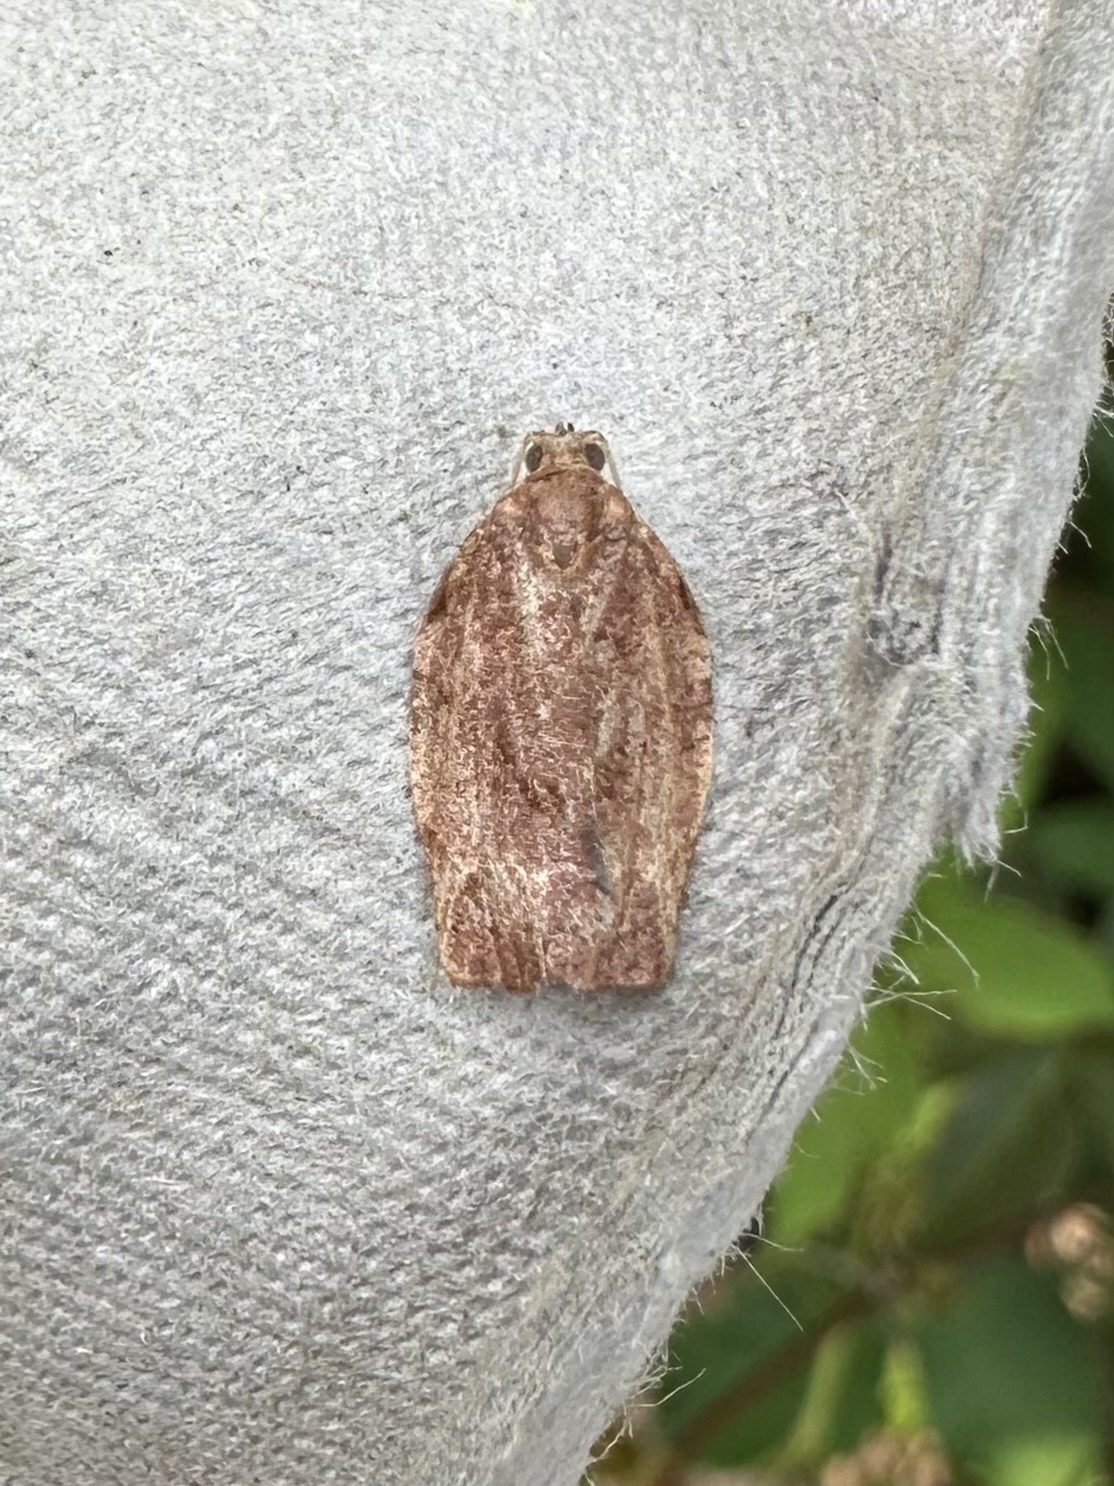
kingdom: Animalia
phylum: Arthropoda
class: Insecta
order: Lepidoptera
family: Tortricidae
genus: Choristoneura
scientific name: Choristoneura rosaceana
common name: Oblique-banded leafroller moth
